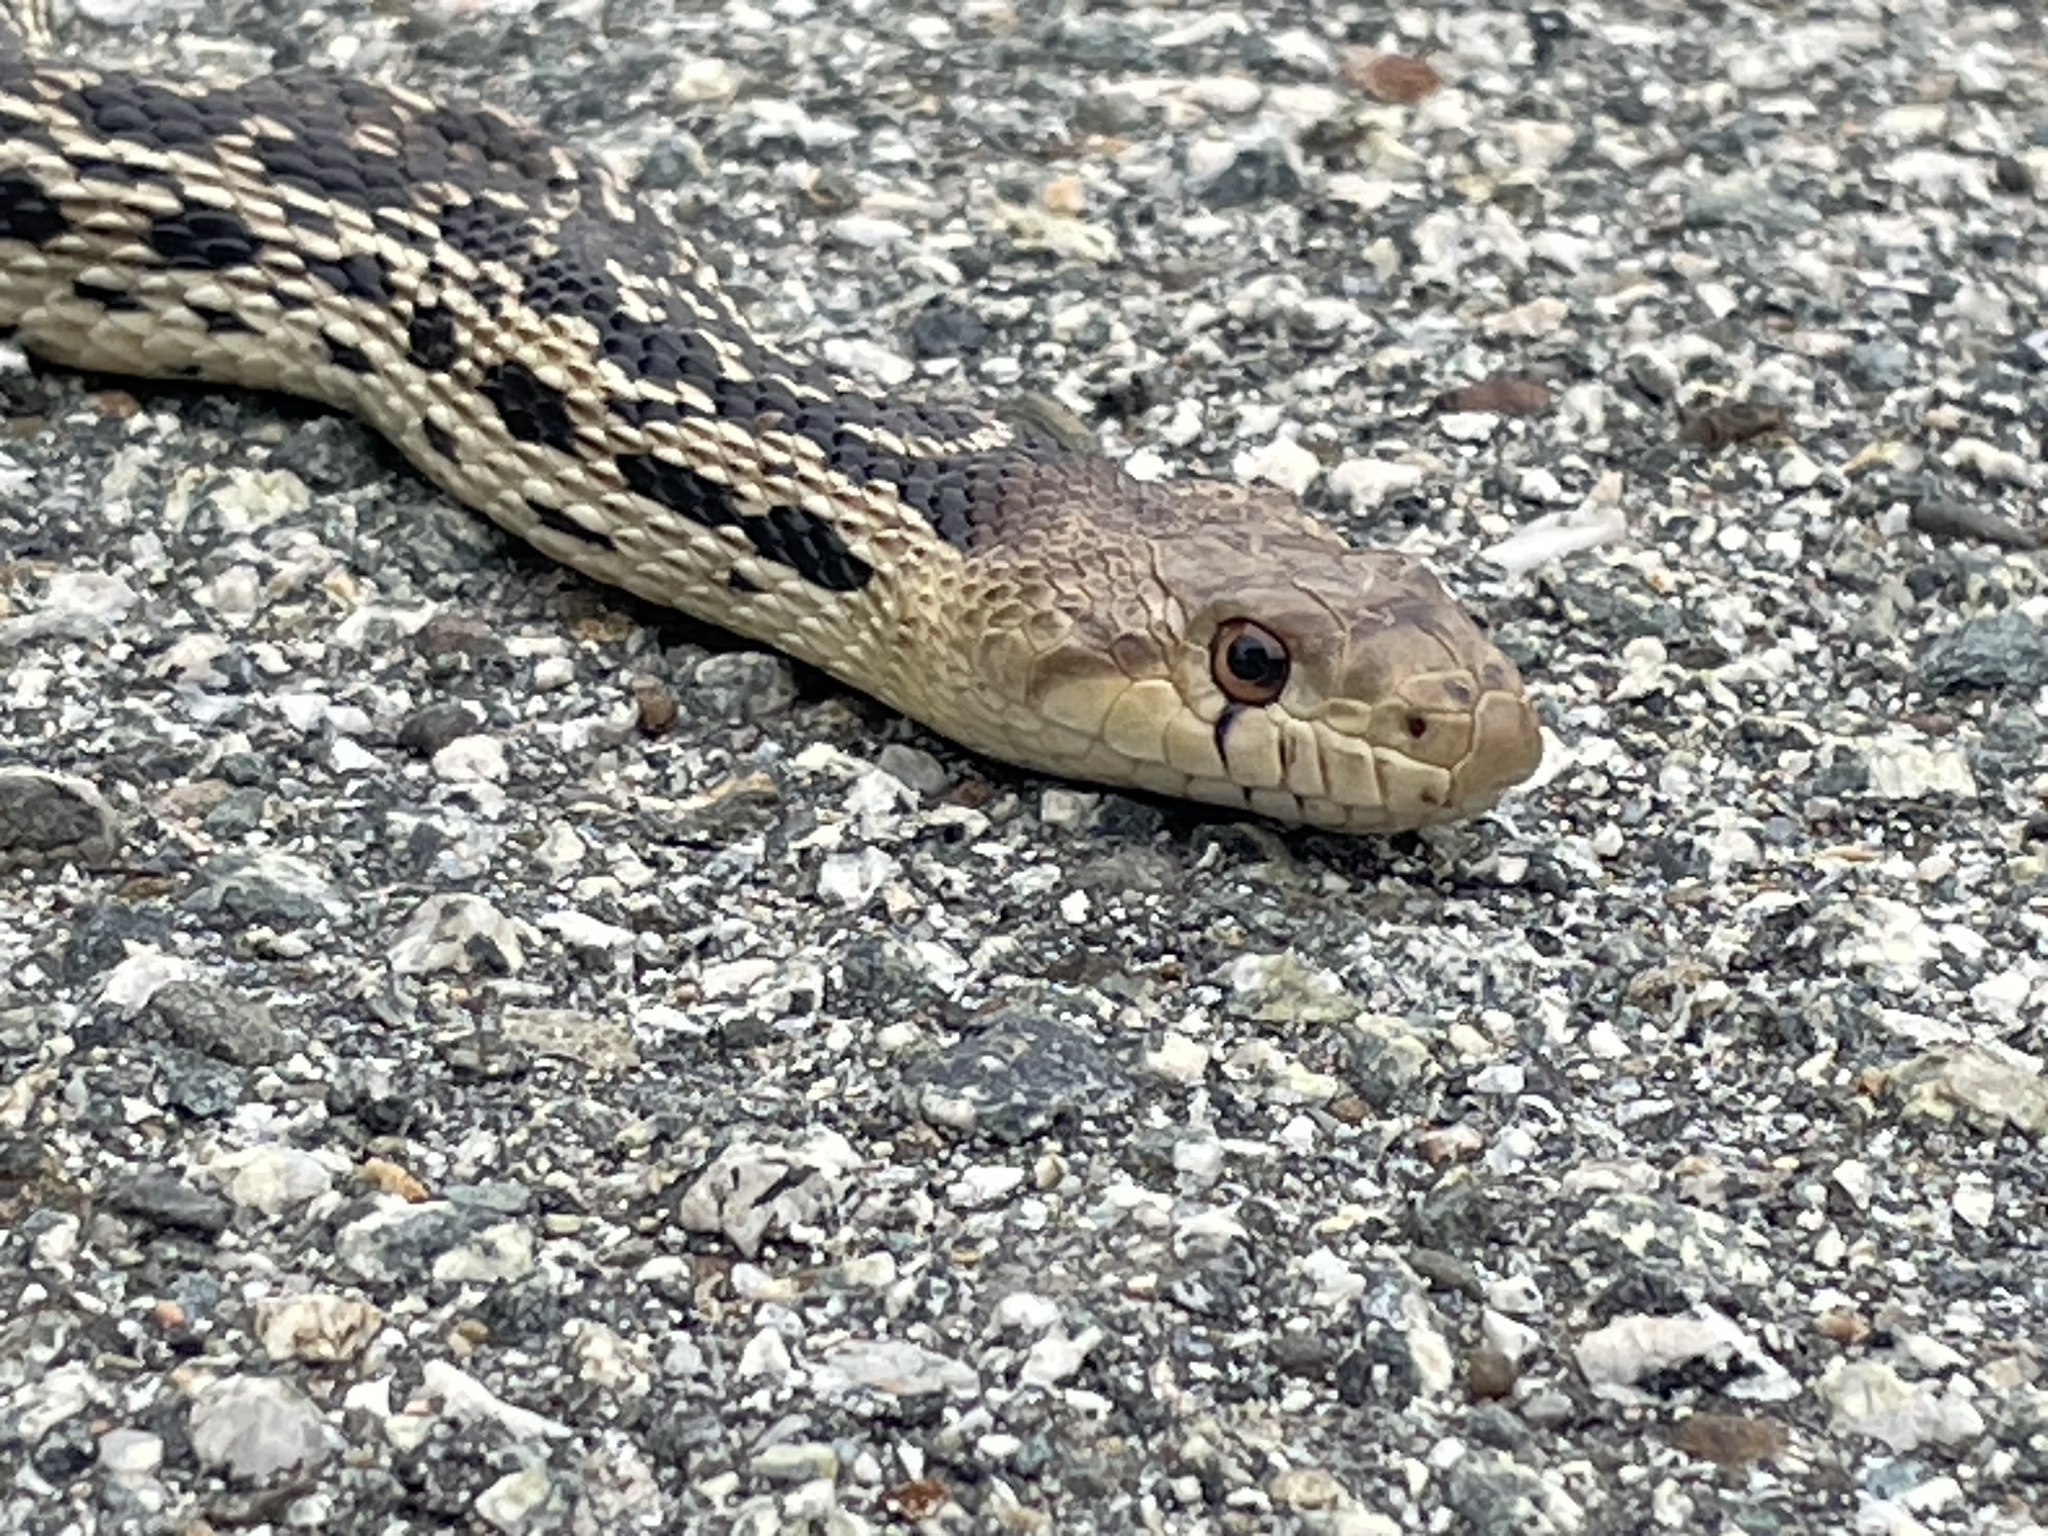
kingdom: Animalia
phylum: Chordata
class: Squamata
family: Colubridae
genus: Pituophis
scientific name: Pituophis catenifer
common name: Gopher snake
